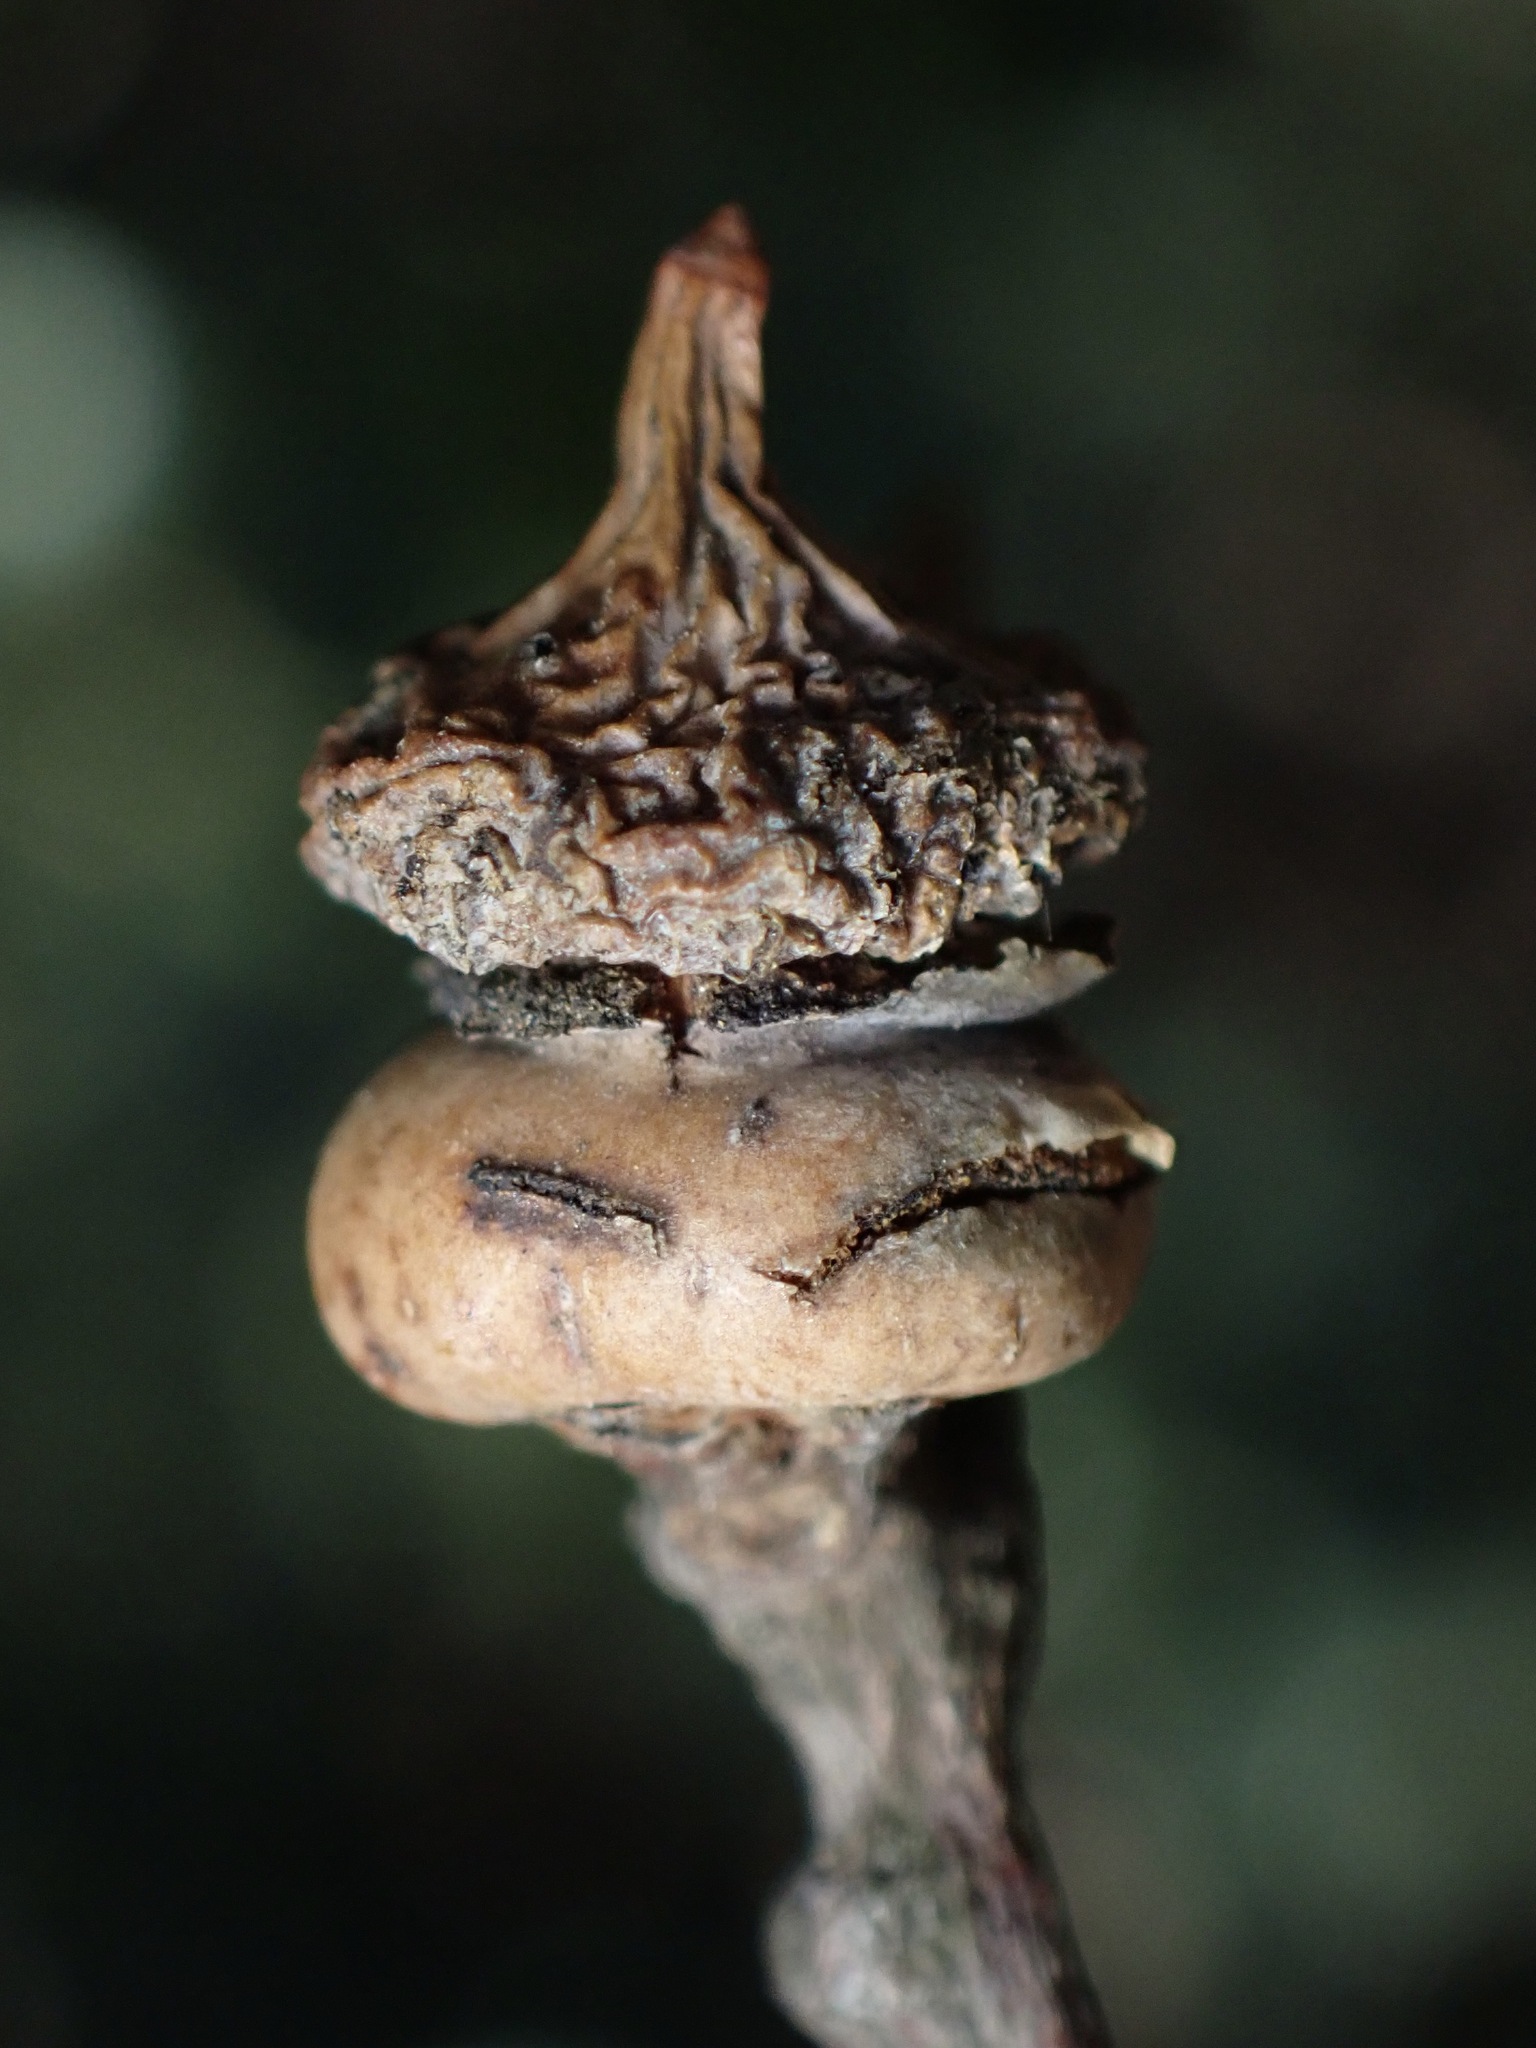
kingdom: Animalia
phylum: Arthropoda
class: Insecta
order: Hymenoptera
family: Cynipidae
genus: Heteroecus
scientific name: Heteroecus
